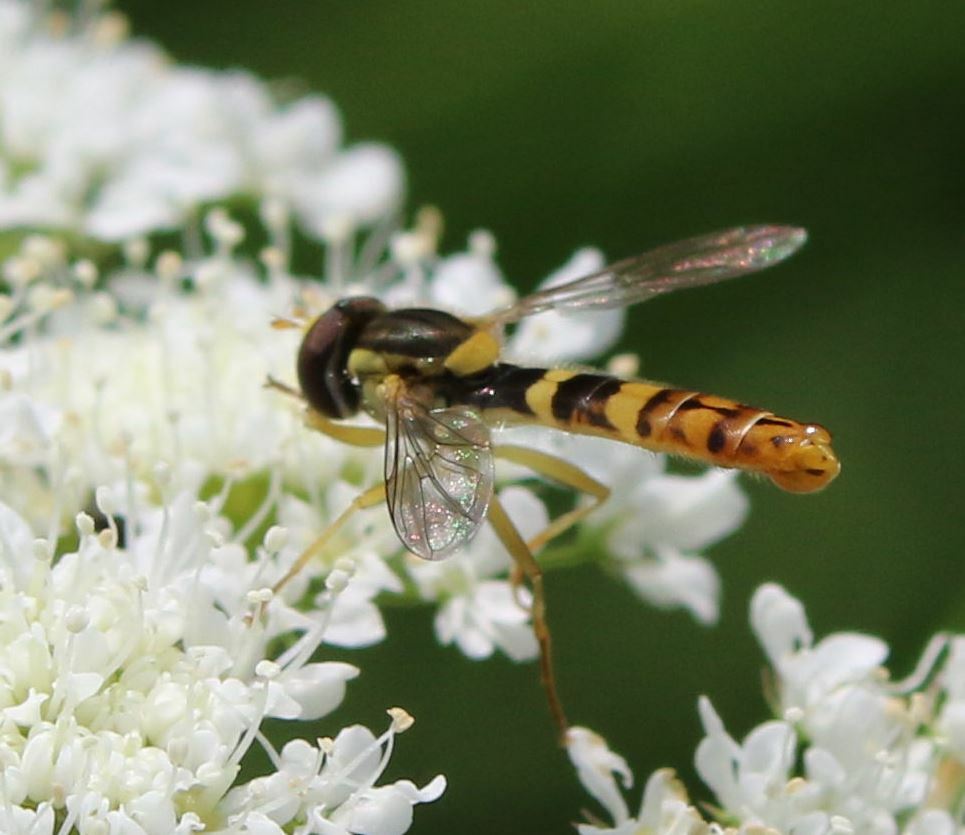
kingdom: Animalia
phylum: Arthropoda
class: Insecta
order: Diptera
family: Syrphidae
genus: Sphaerophoria
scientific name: Sphaerophoria scripta
